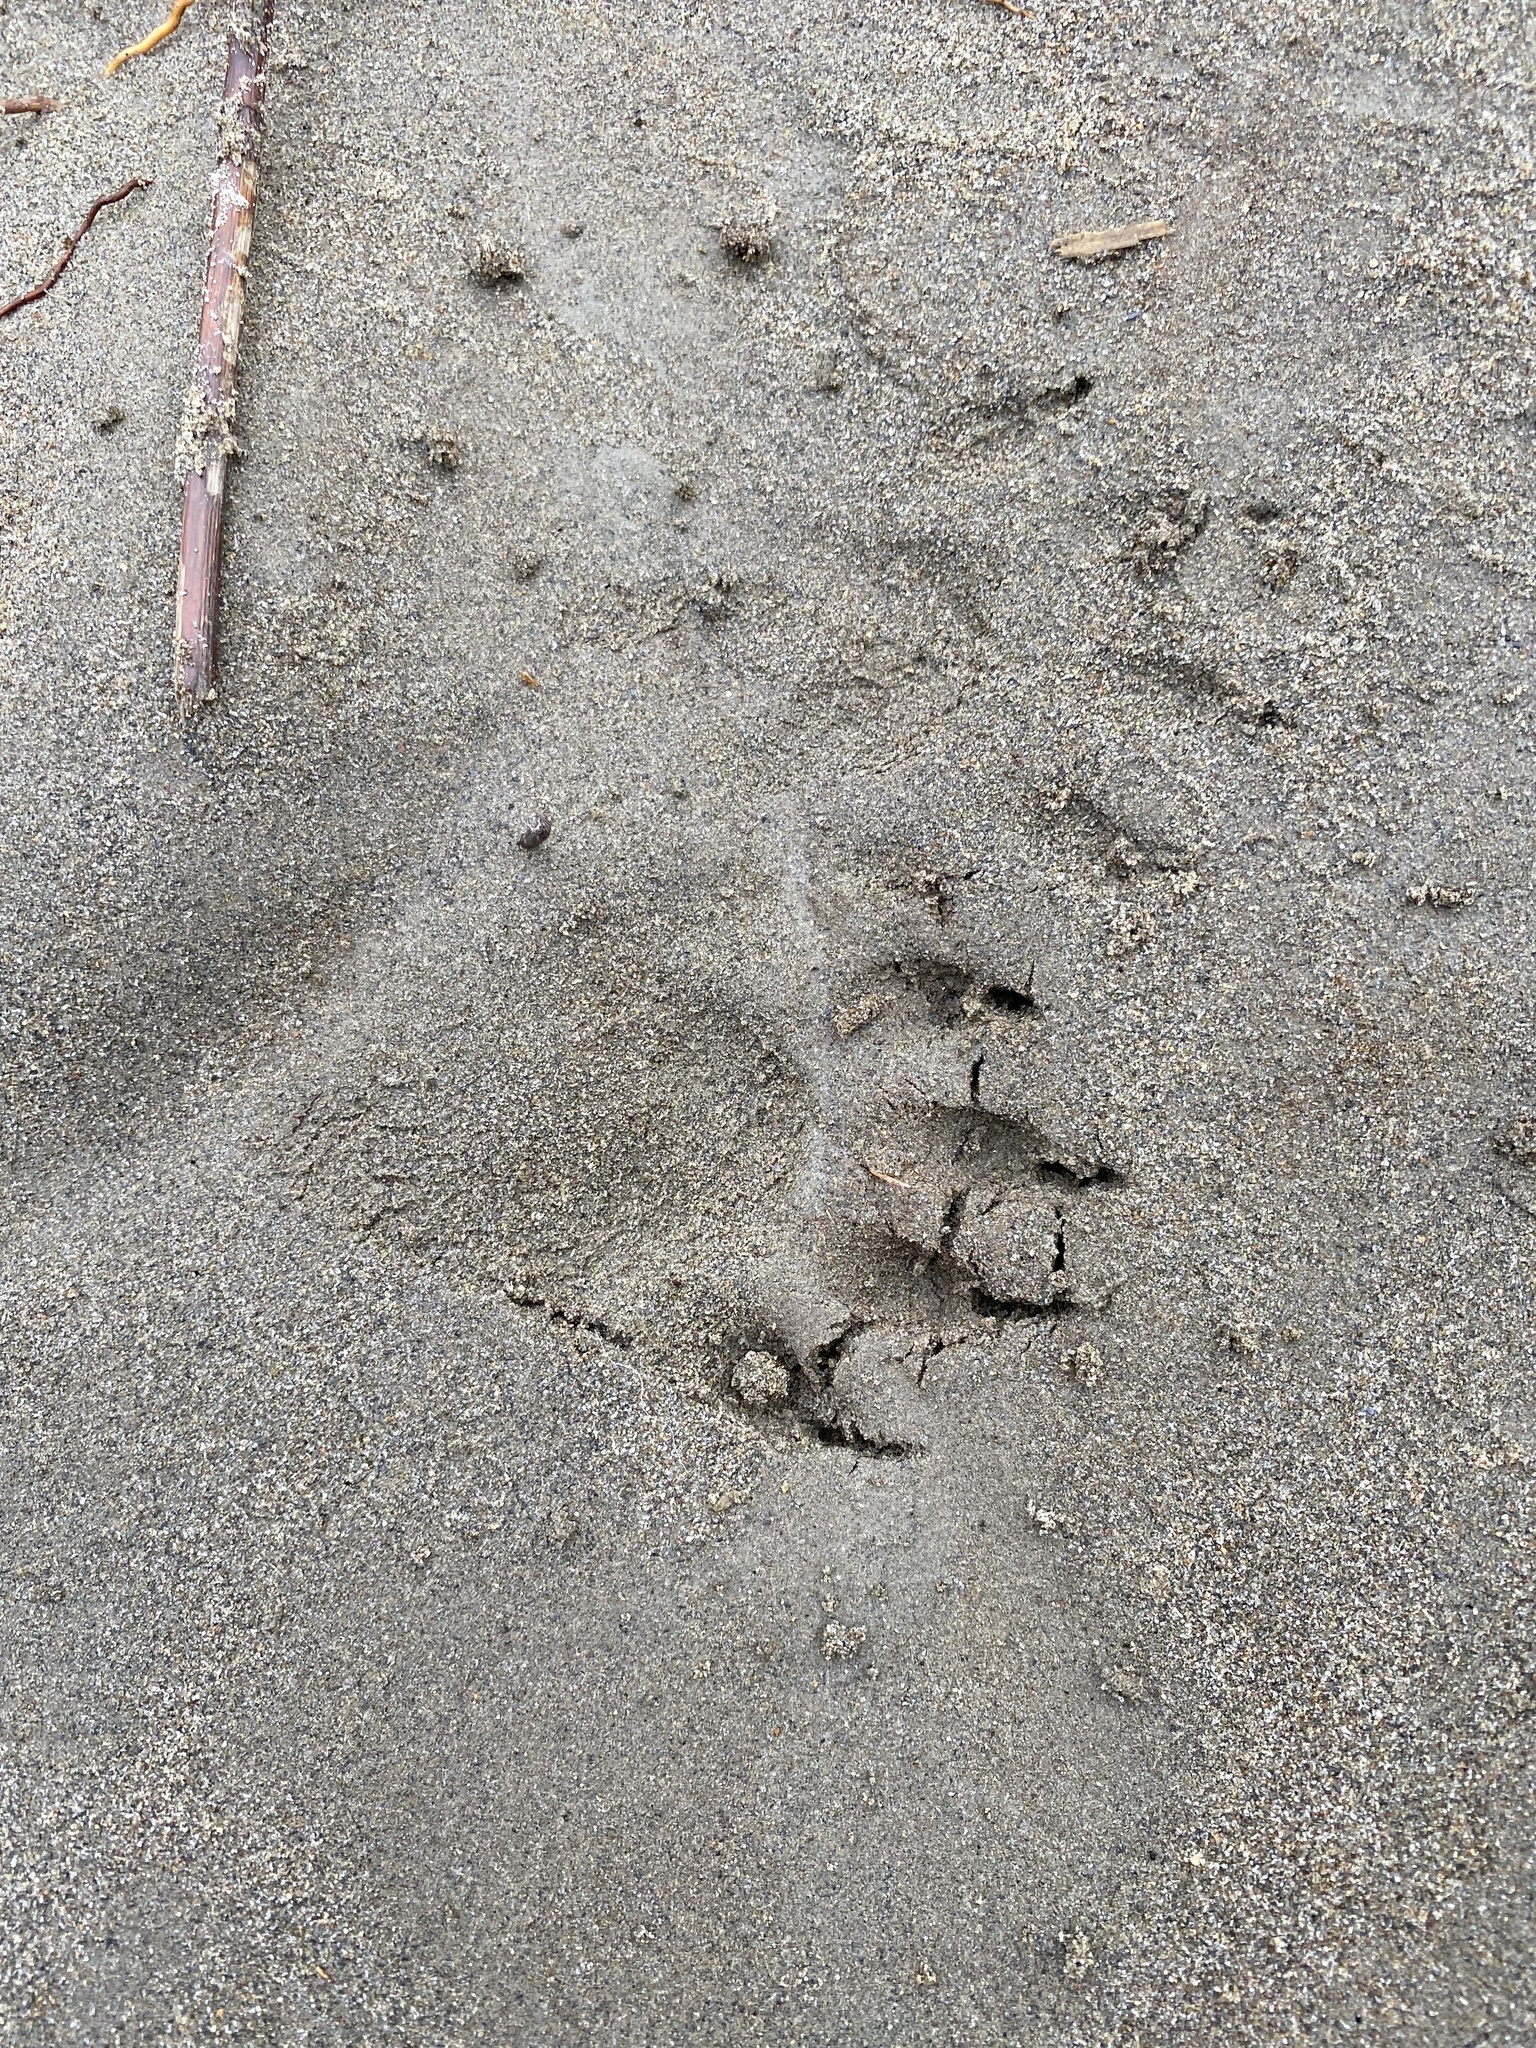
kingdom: Animalia
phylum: Chordata
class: Mammalia
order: Carnivora
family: Procyonidae
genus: Procyon
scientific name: Procyon lotor
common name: Raccoon
